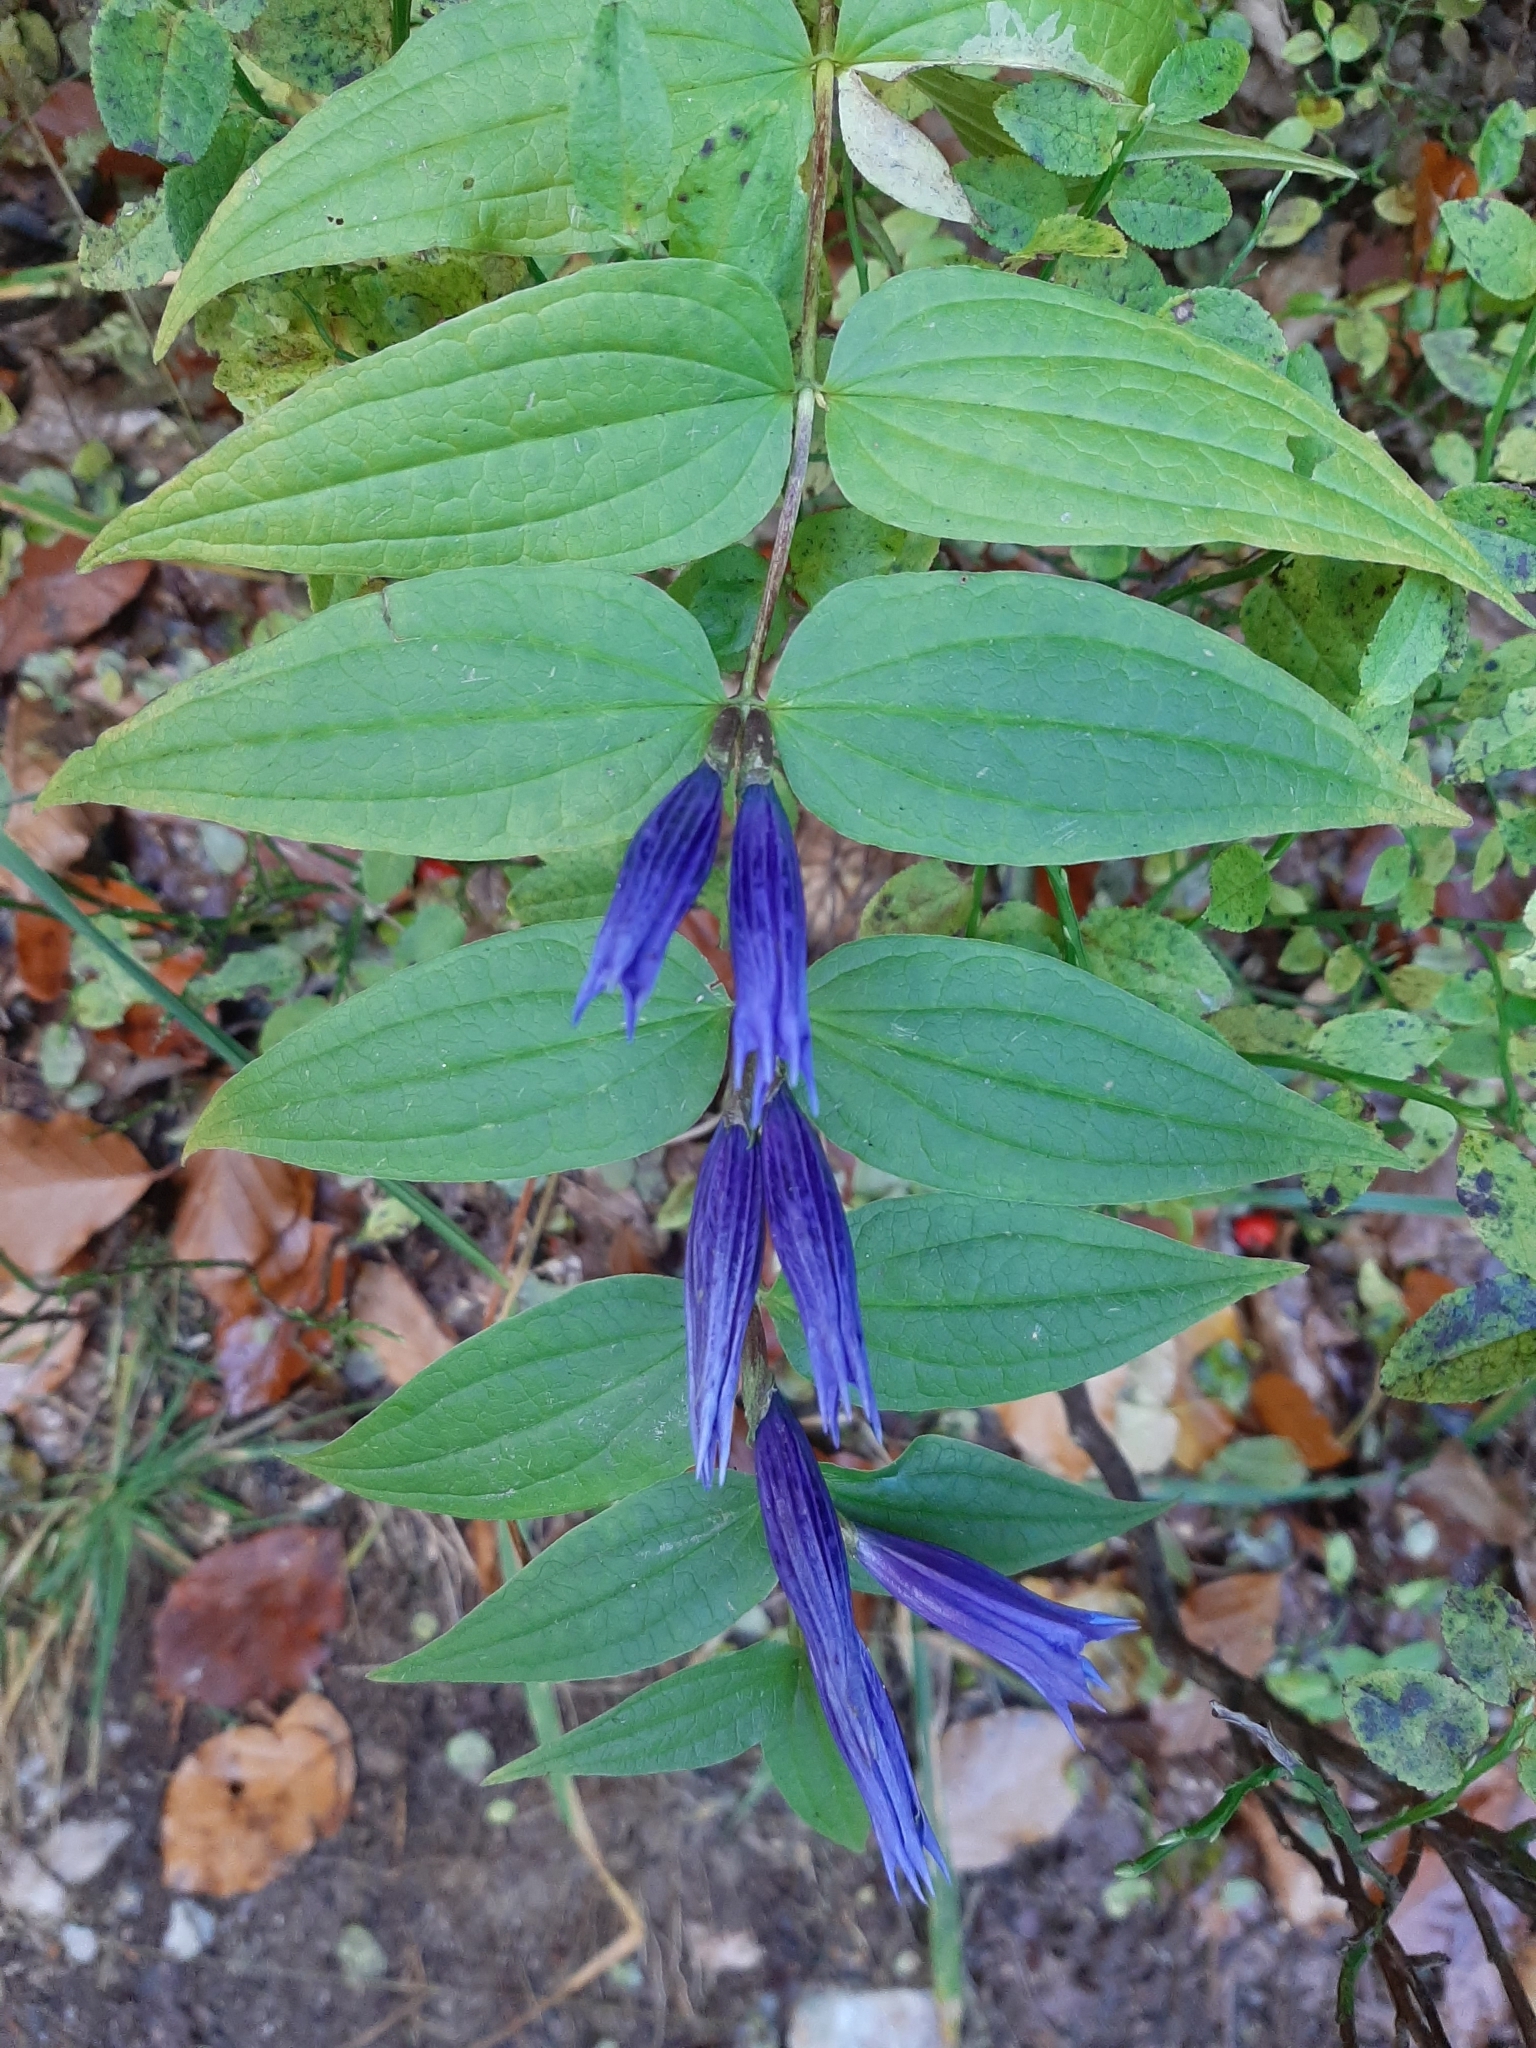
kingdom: Plantae
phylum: Tracheophyta
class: Magnoliopsida
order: Gentianales
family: Gentianaceae
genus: Gentiana
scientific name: Gentiana asclepiadea
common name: Willow gentian
